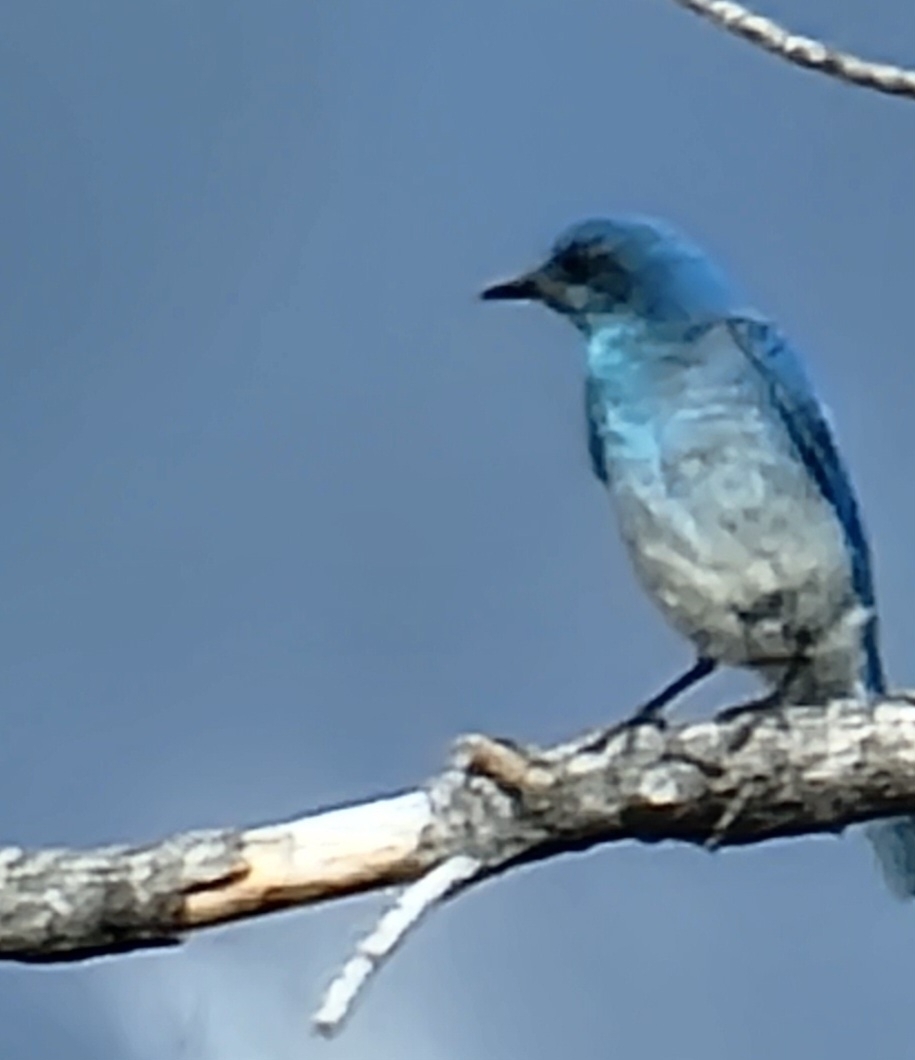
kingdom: Animalia
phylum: Chordata
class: Aves
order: Passeriformes
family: Turdidae
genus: Sialia
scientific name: Sialia currucoides
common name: Mountain bluebird
